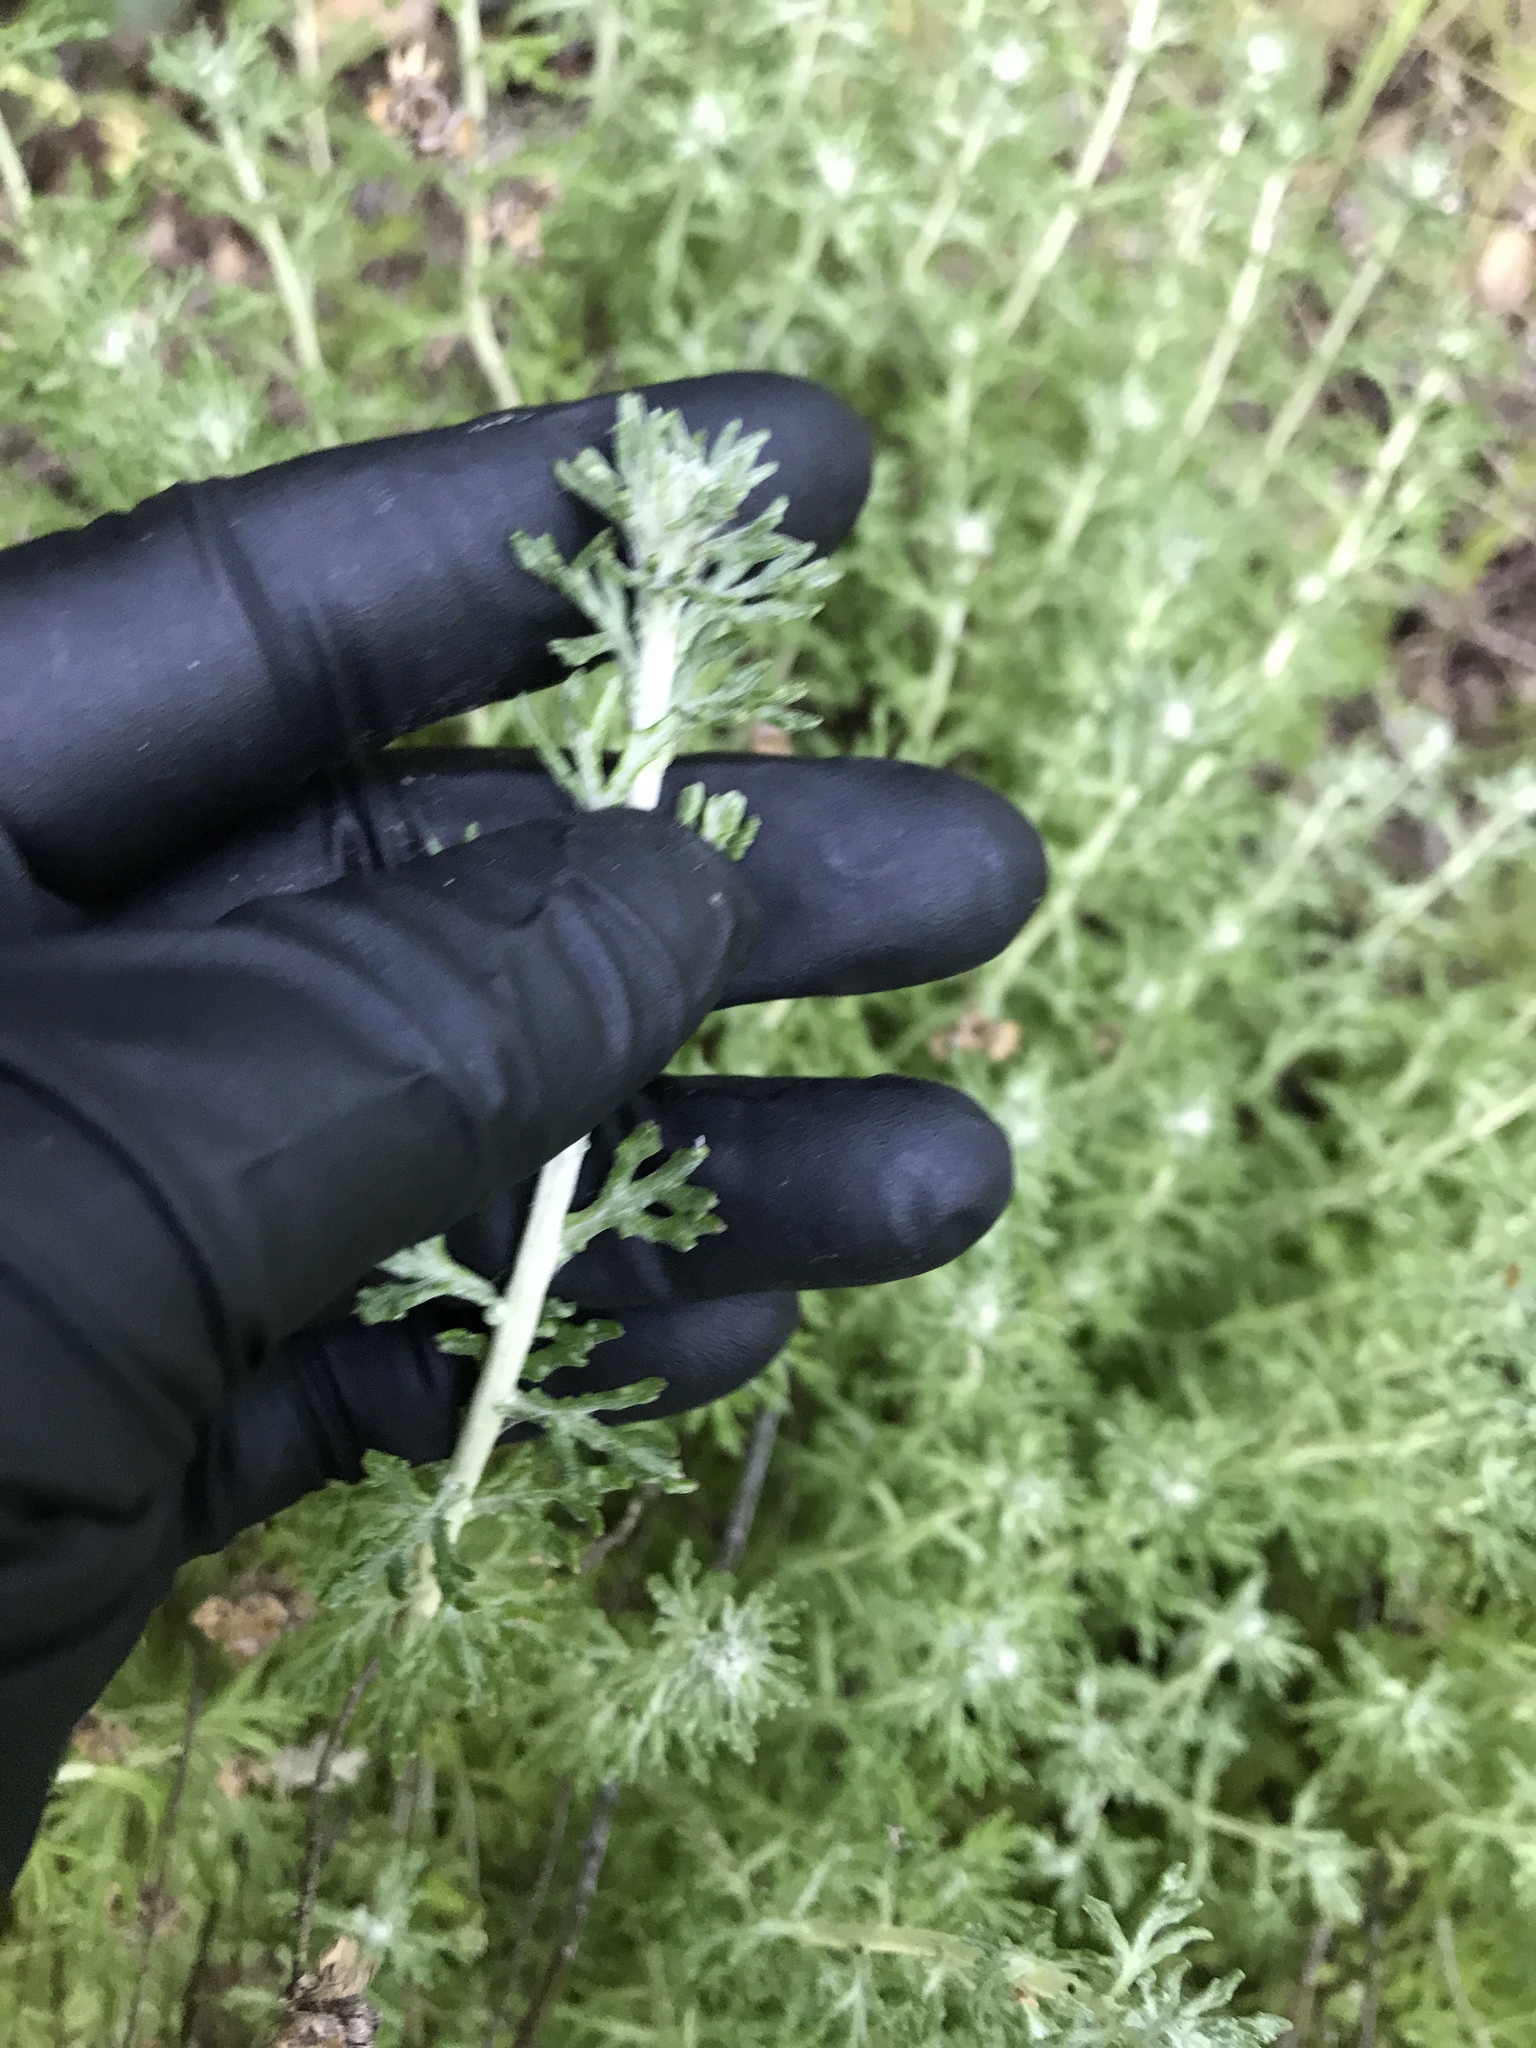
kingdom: Plantae
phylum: Tracheophyta
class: Magnoliopsida
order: Asterales
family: Asteraceae
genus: Eriophyllum
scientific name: Eriophyllum confertiflorum
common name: Golden-yarrow
